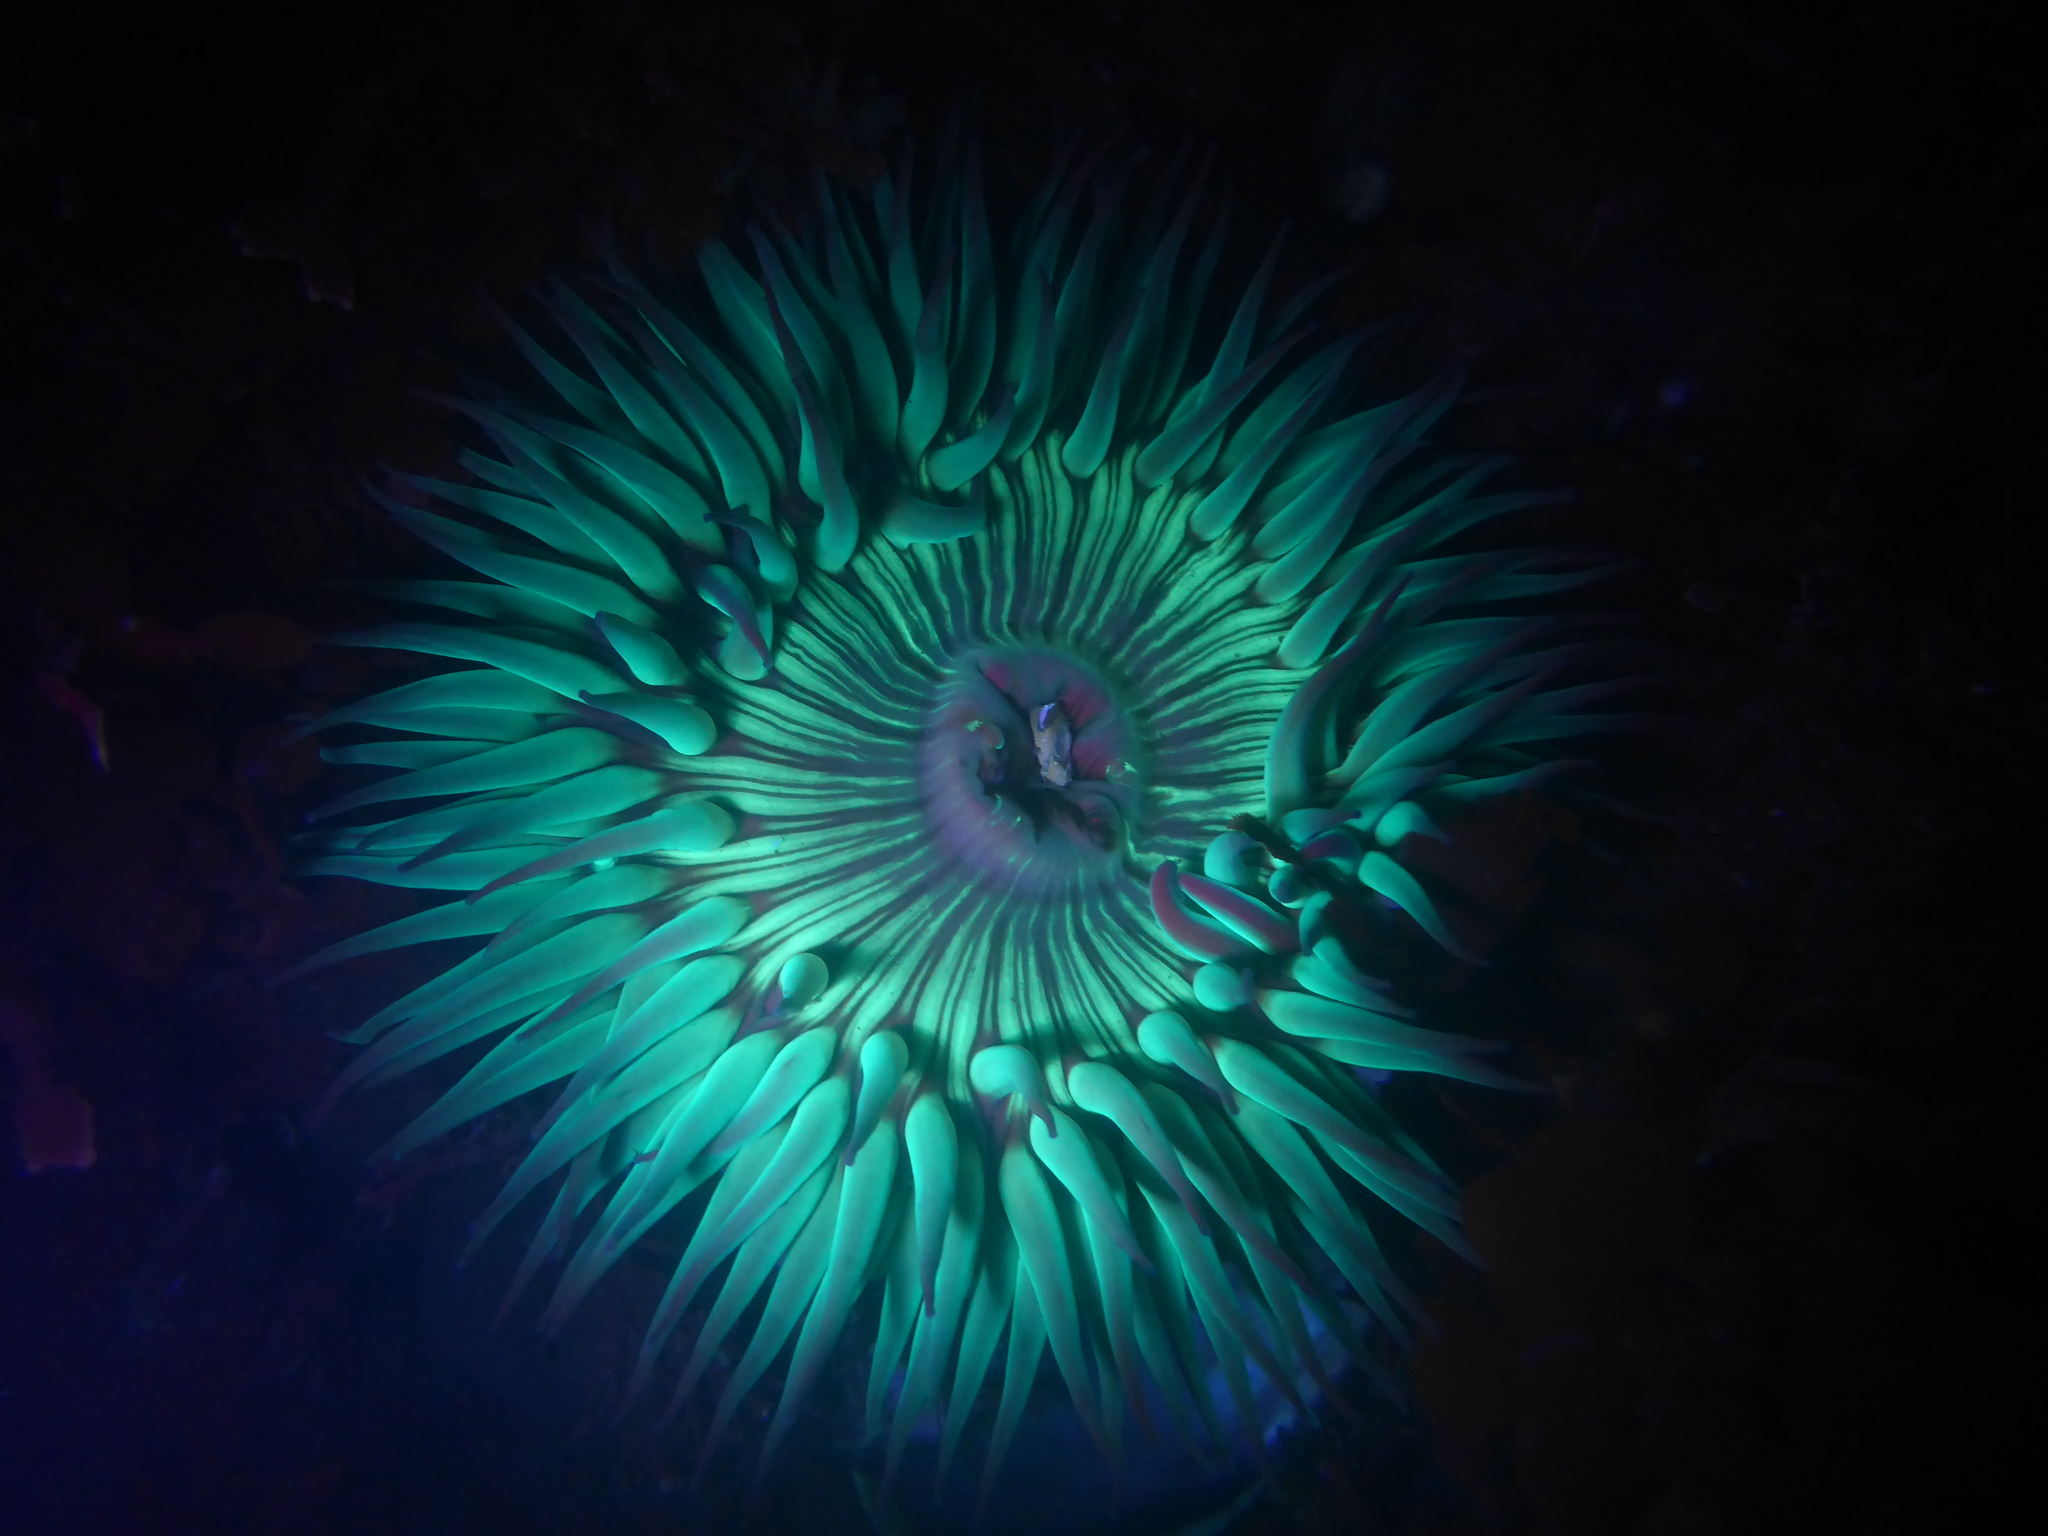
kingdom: Animalia
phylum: Cnidaria
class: Anthozoa
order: Actiniaria
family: Actiniidae
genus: Anthopleura
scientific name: Anthopleura sola
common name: Sun anemone
